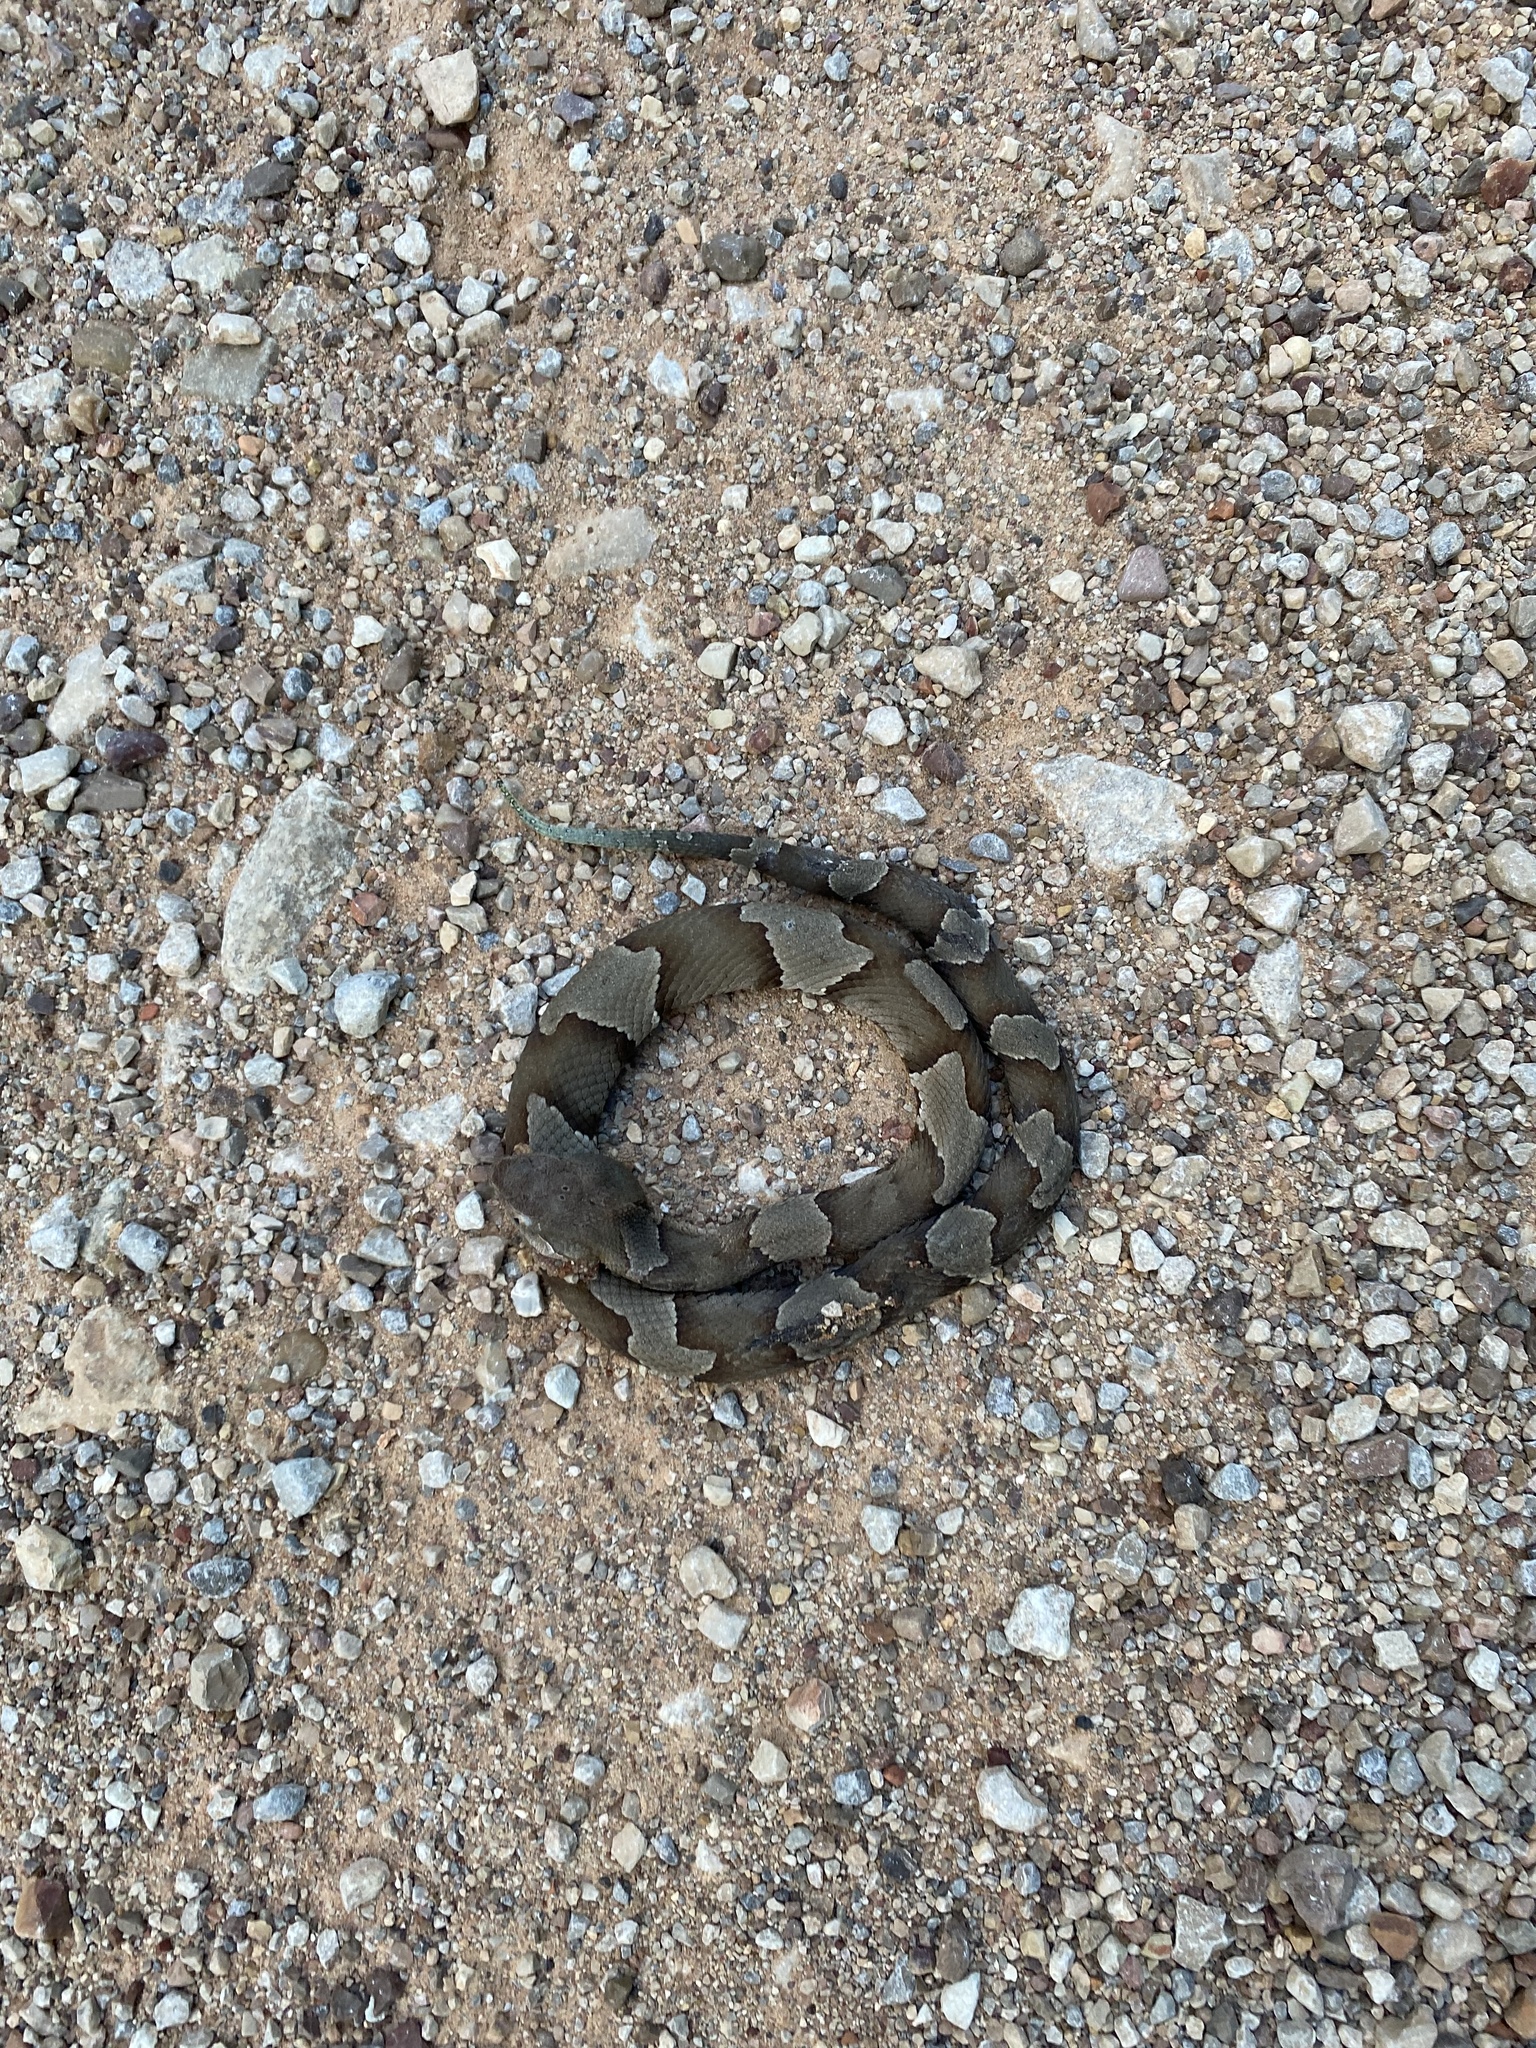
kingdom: Animalia
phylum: Chordata
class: Squamata
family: Viperidae
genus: Agkistrodon
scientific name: Agkistrodon laticinctus
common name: Broad-banded copperhead
